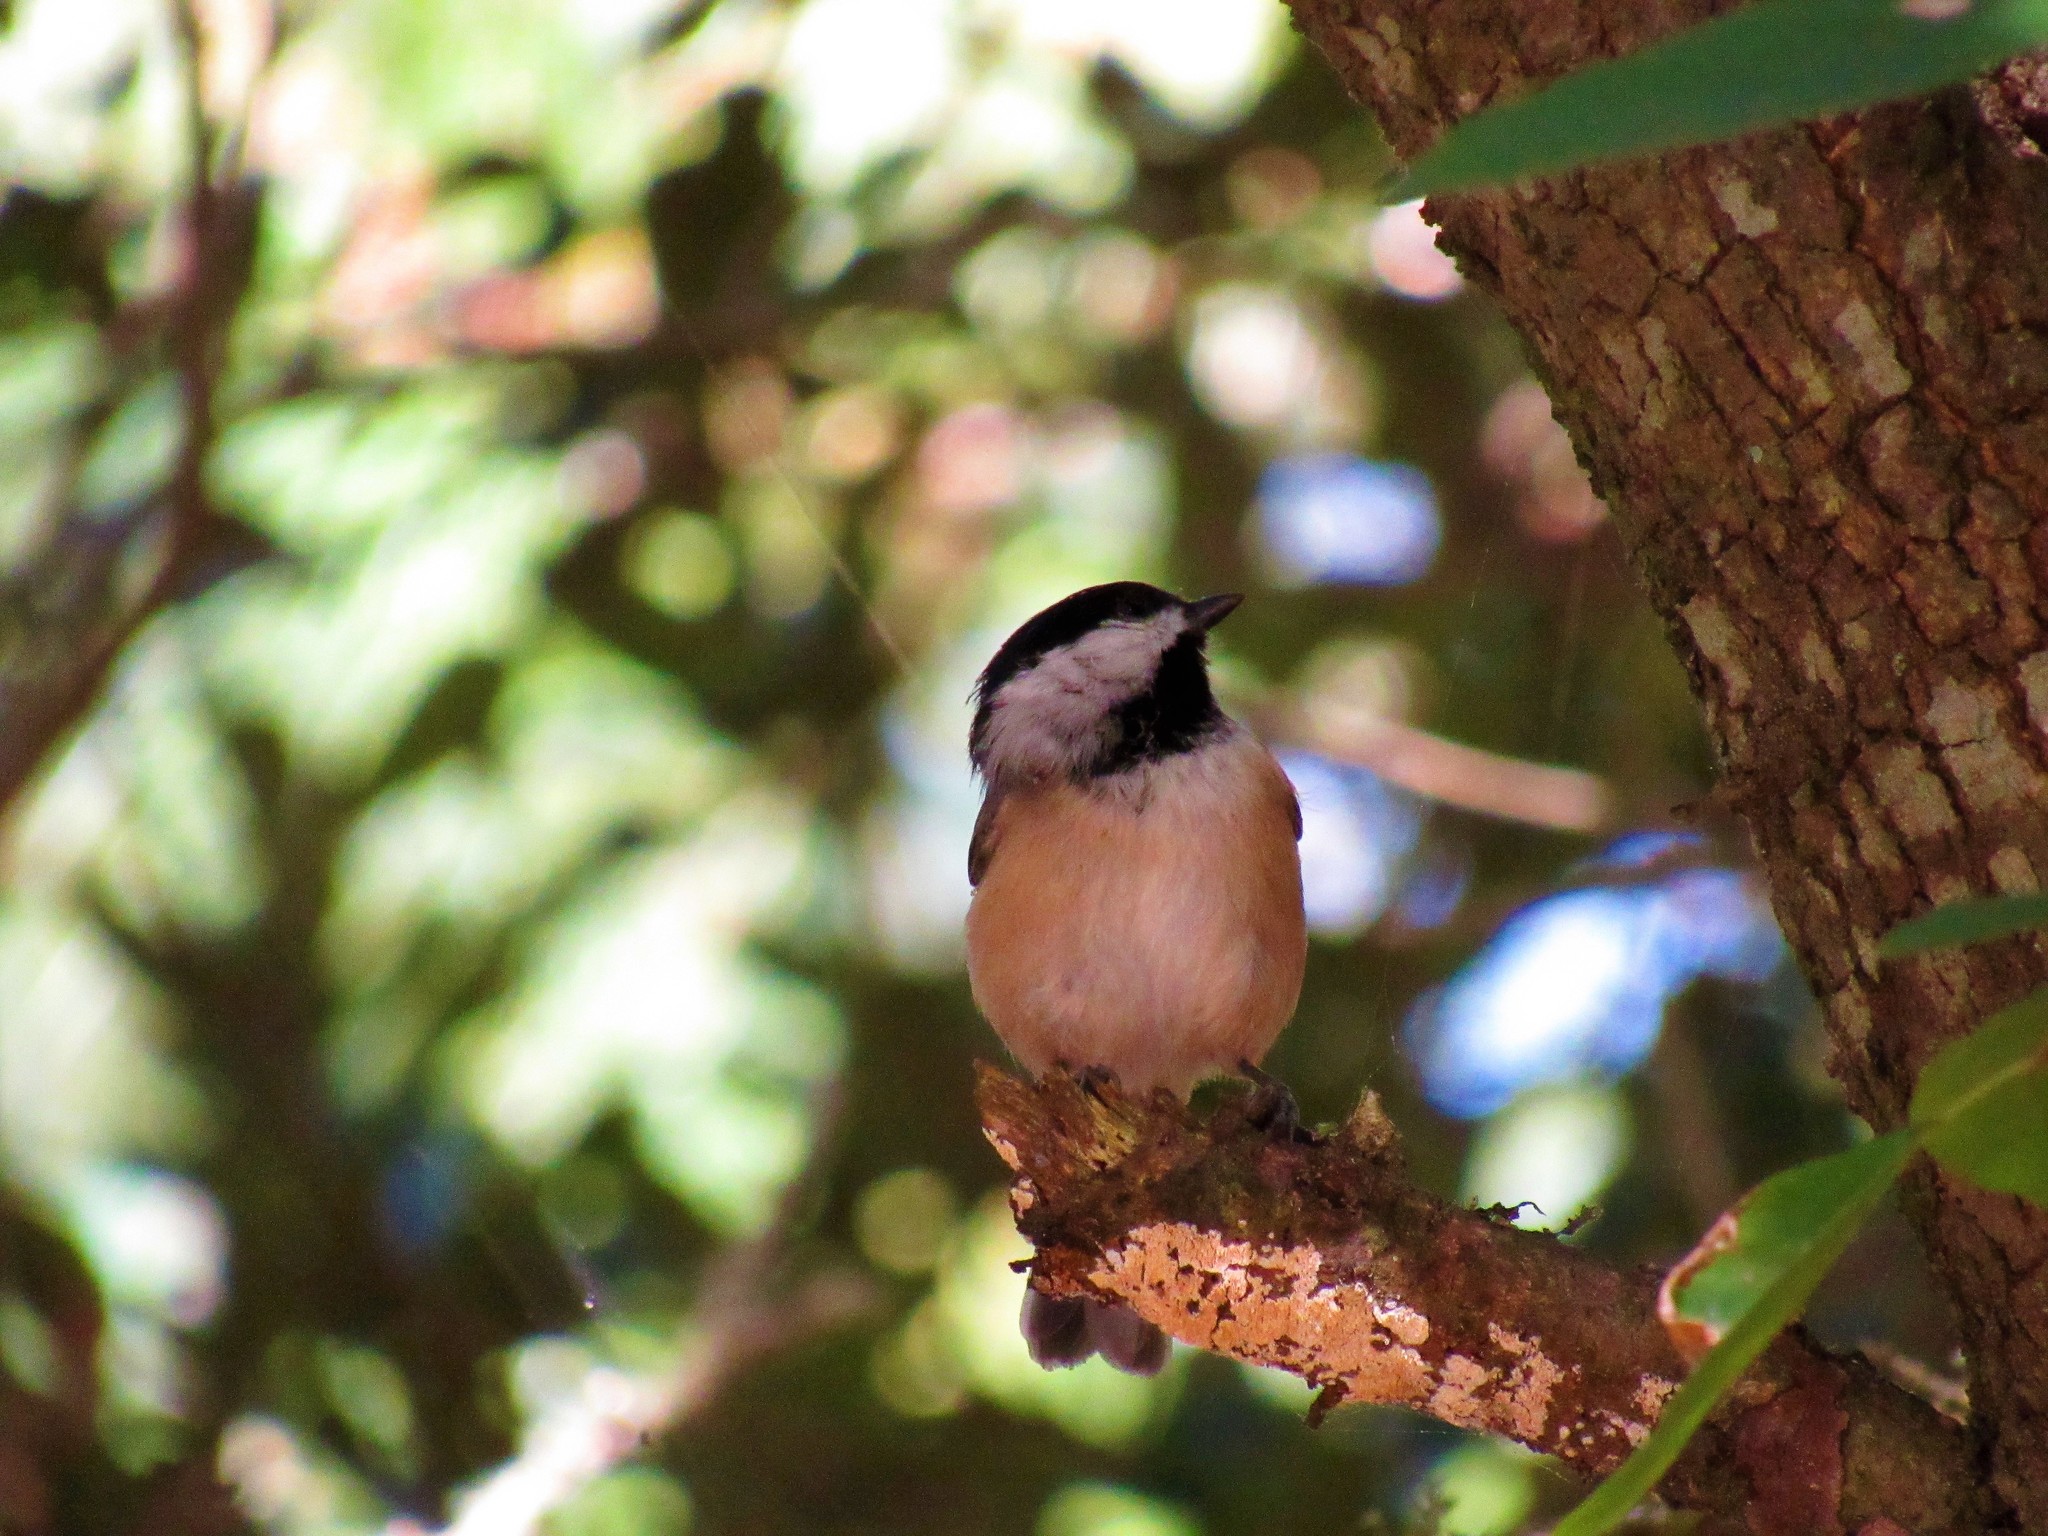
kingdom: Animalia
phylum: Chordata
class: Aves
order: Passeriformes
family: Paridae
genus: Poecile
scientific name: Poecile carolinensis
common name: Carolina chickadee
